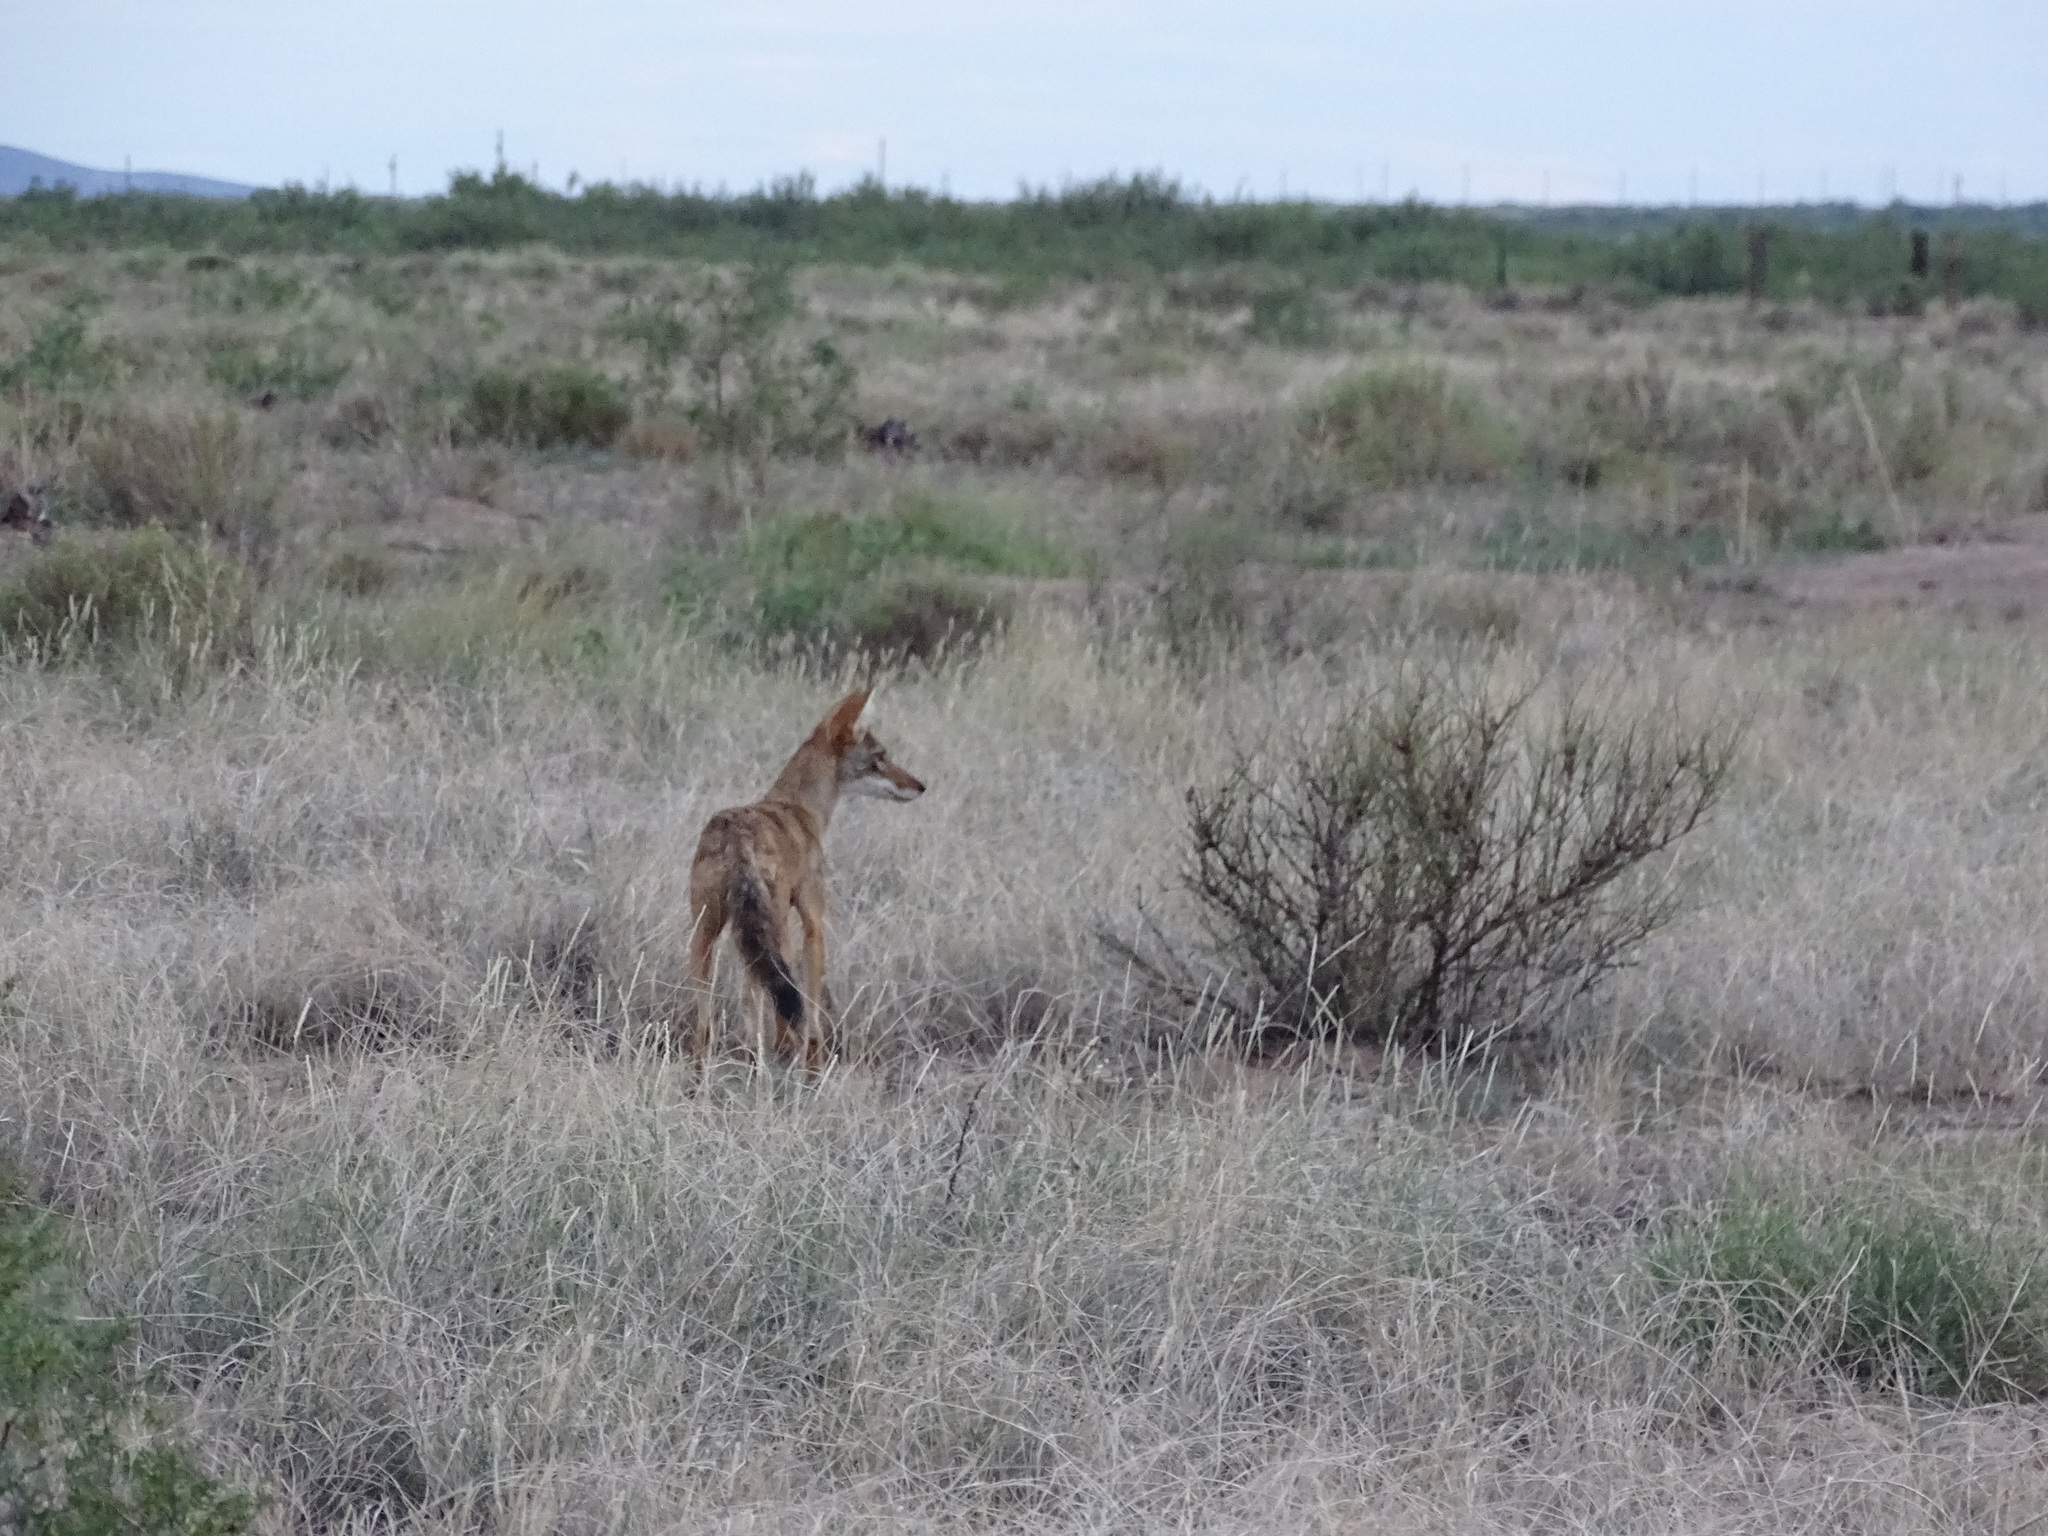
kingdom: Animalia
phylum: Chordata
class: Mammalia
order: Carnivora
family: Canidae
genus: Canis
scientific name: Canis latrans
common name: Coyote
